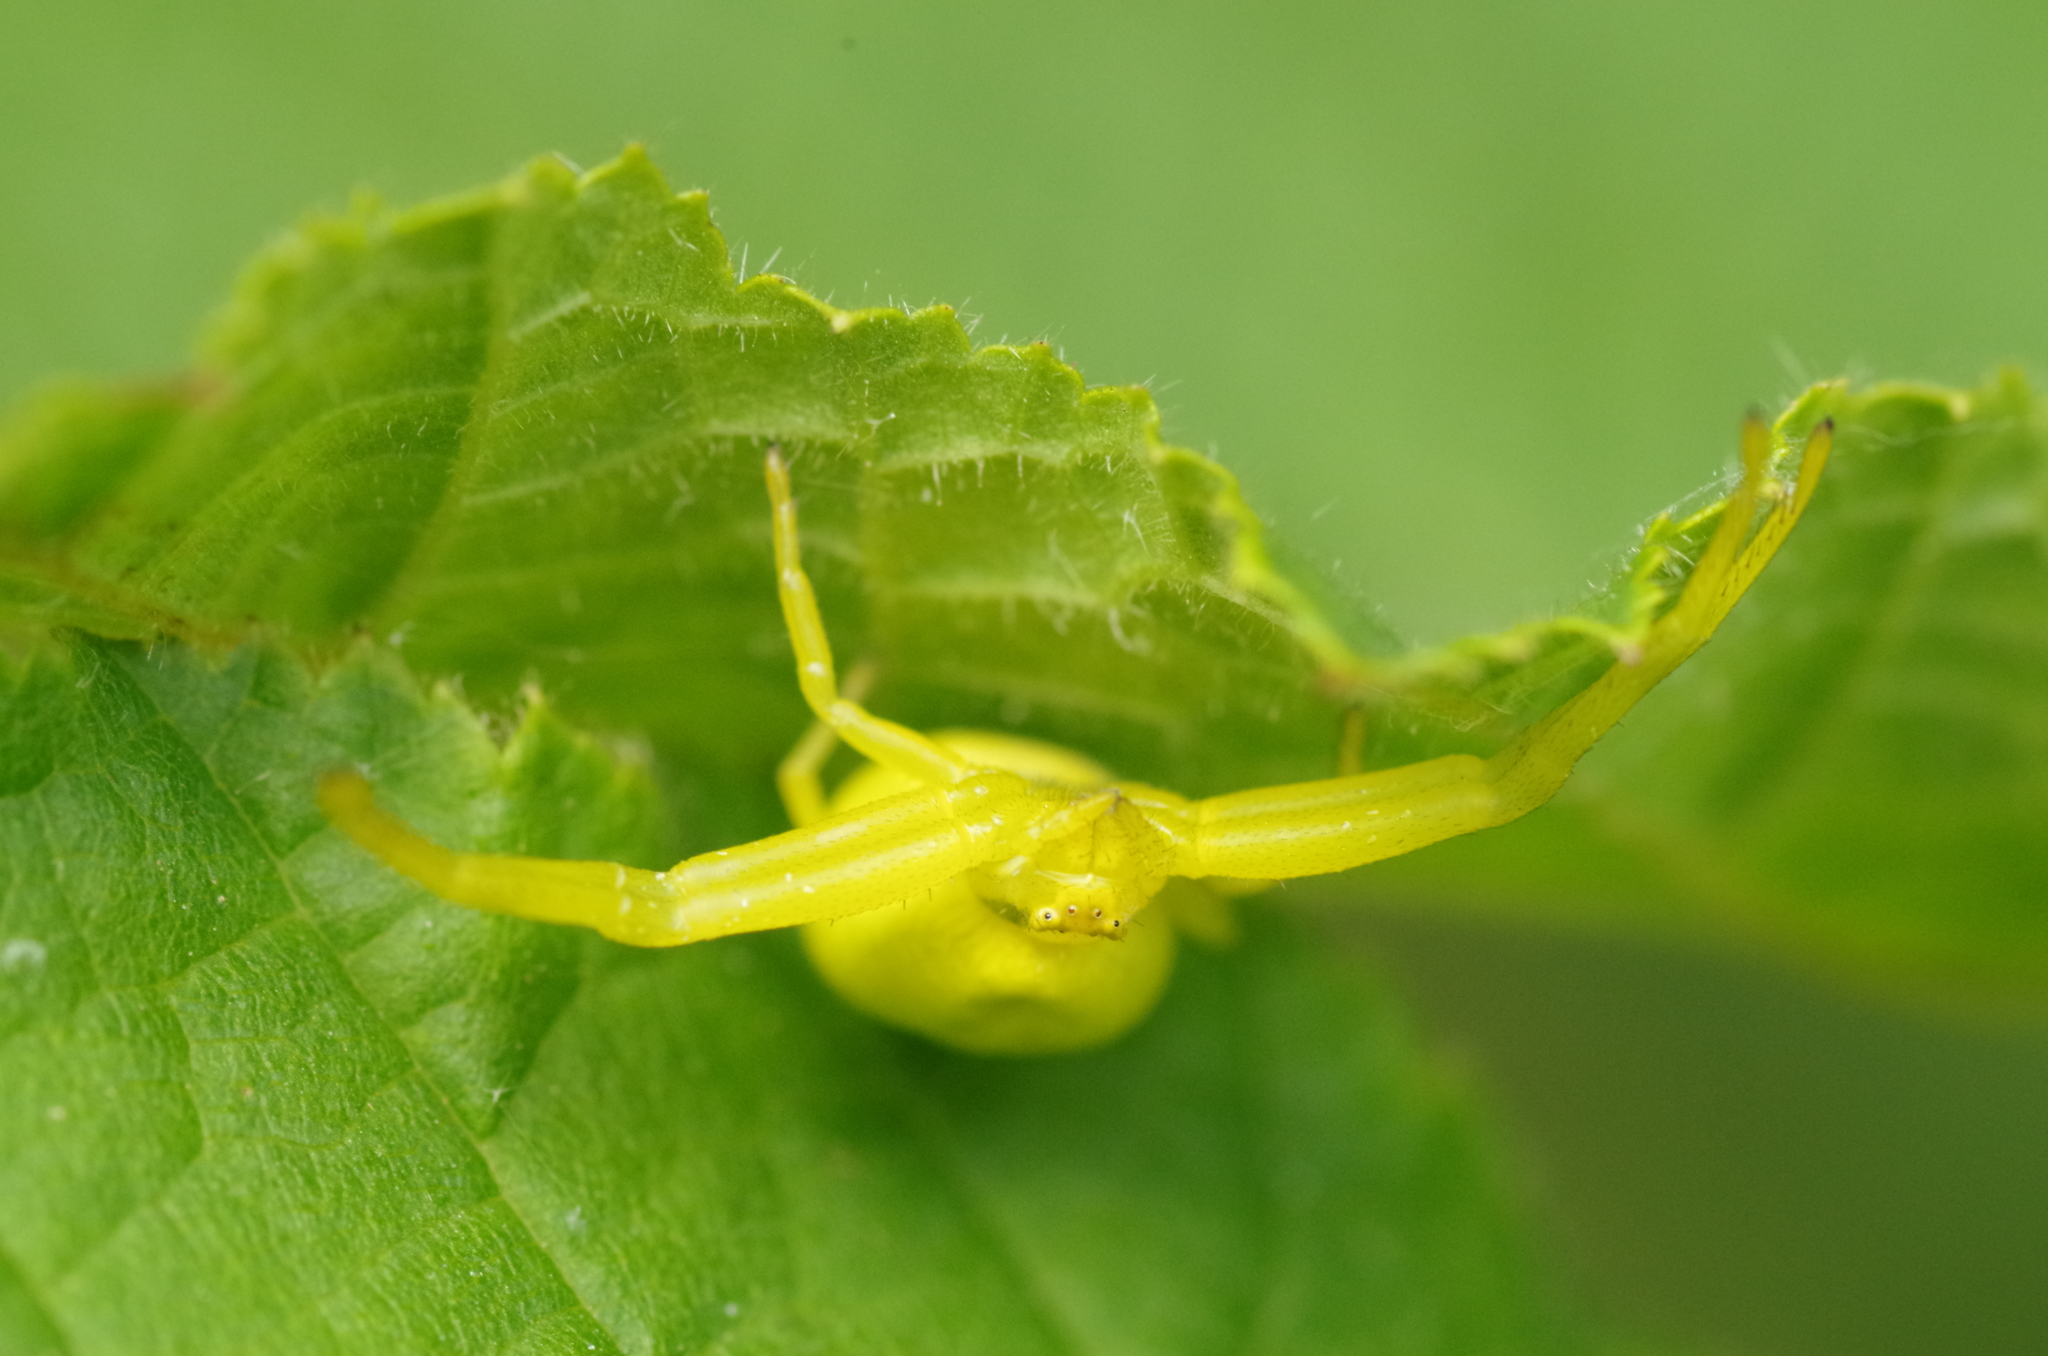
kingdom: Animalia
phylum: Arthropoda
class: Arachnida
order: Araneae
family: Thomisidae
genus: Misumena
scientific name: Misumena vatia
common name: Goldenrod crab spider
